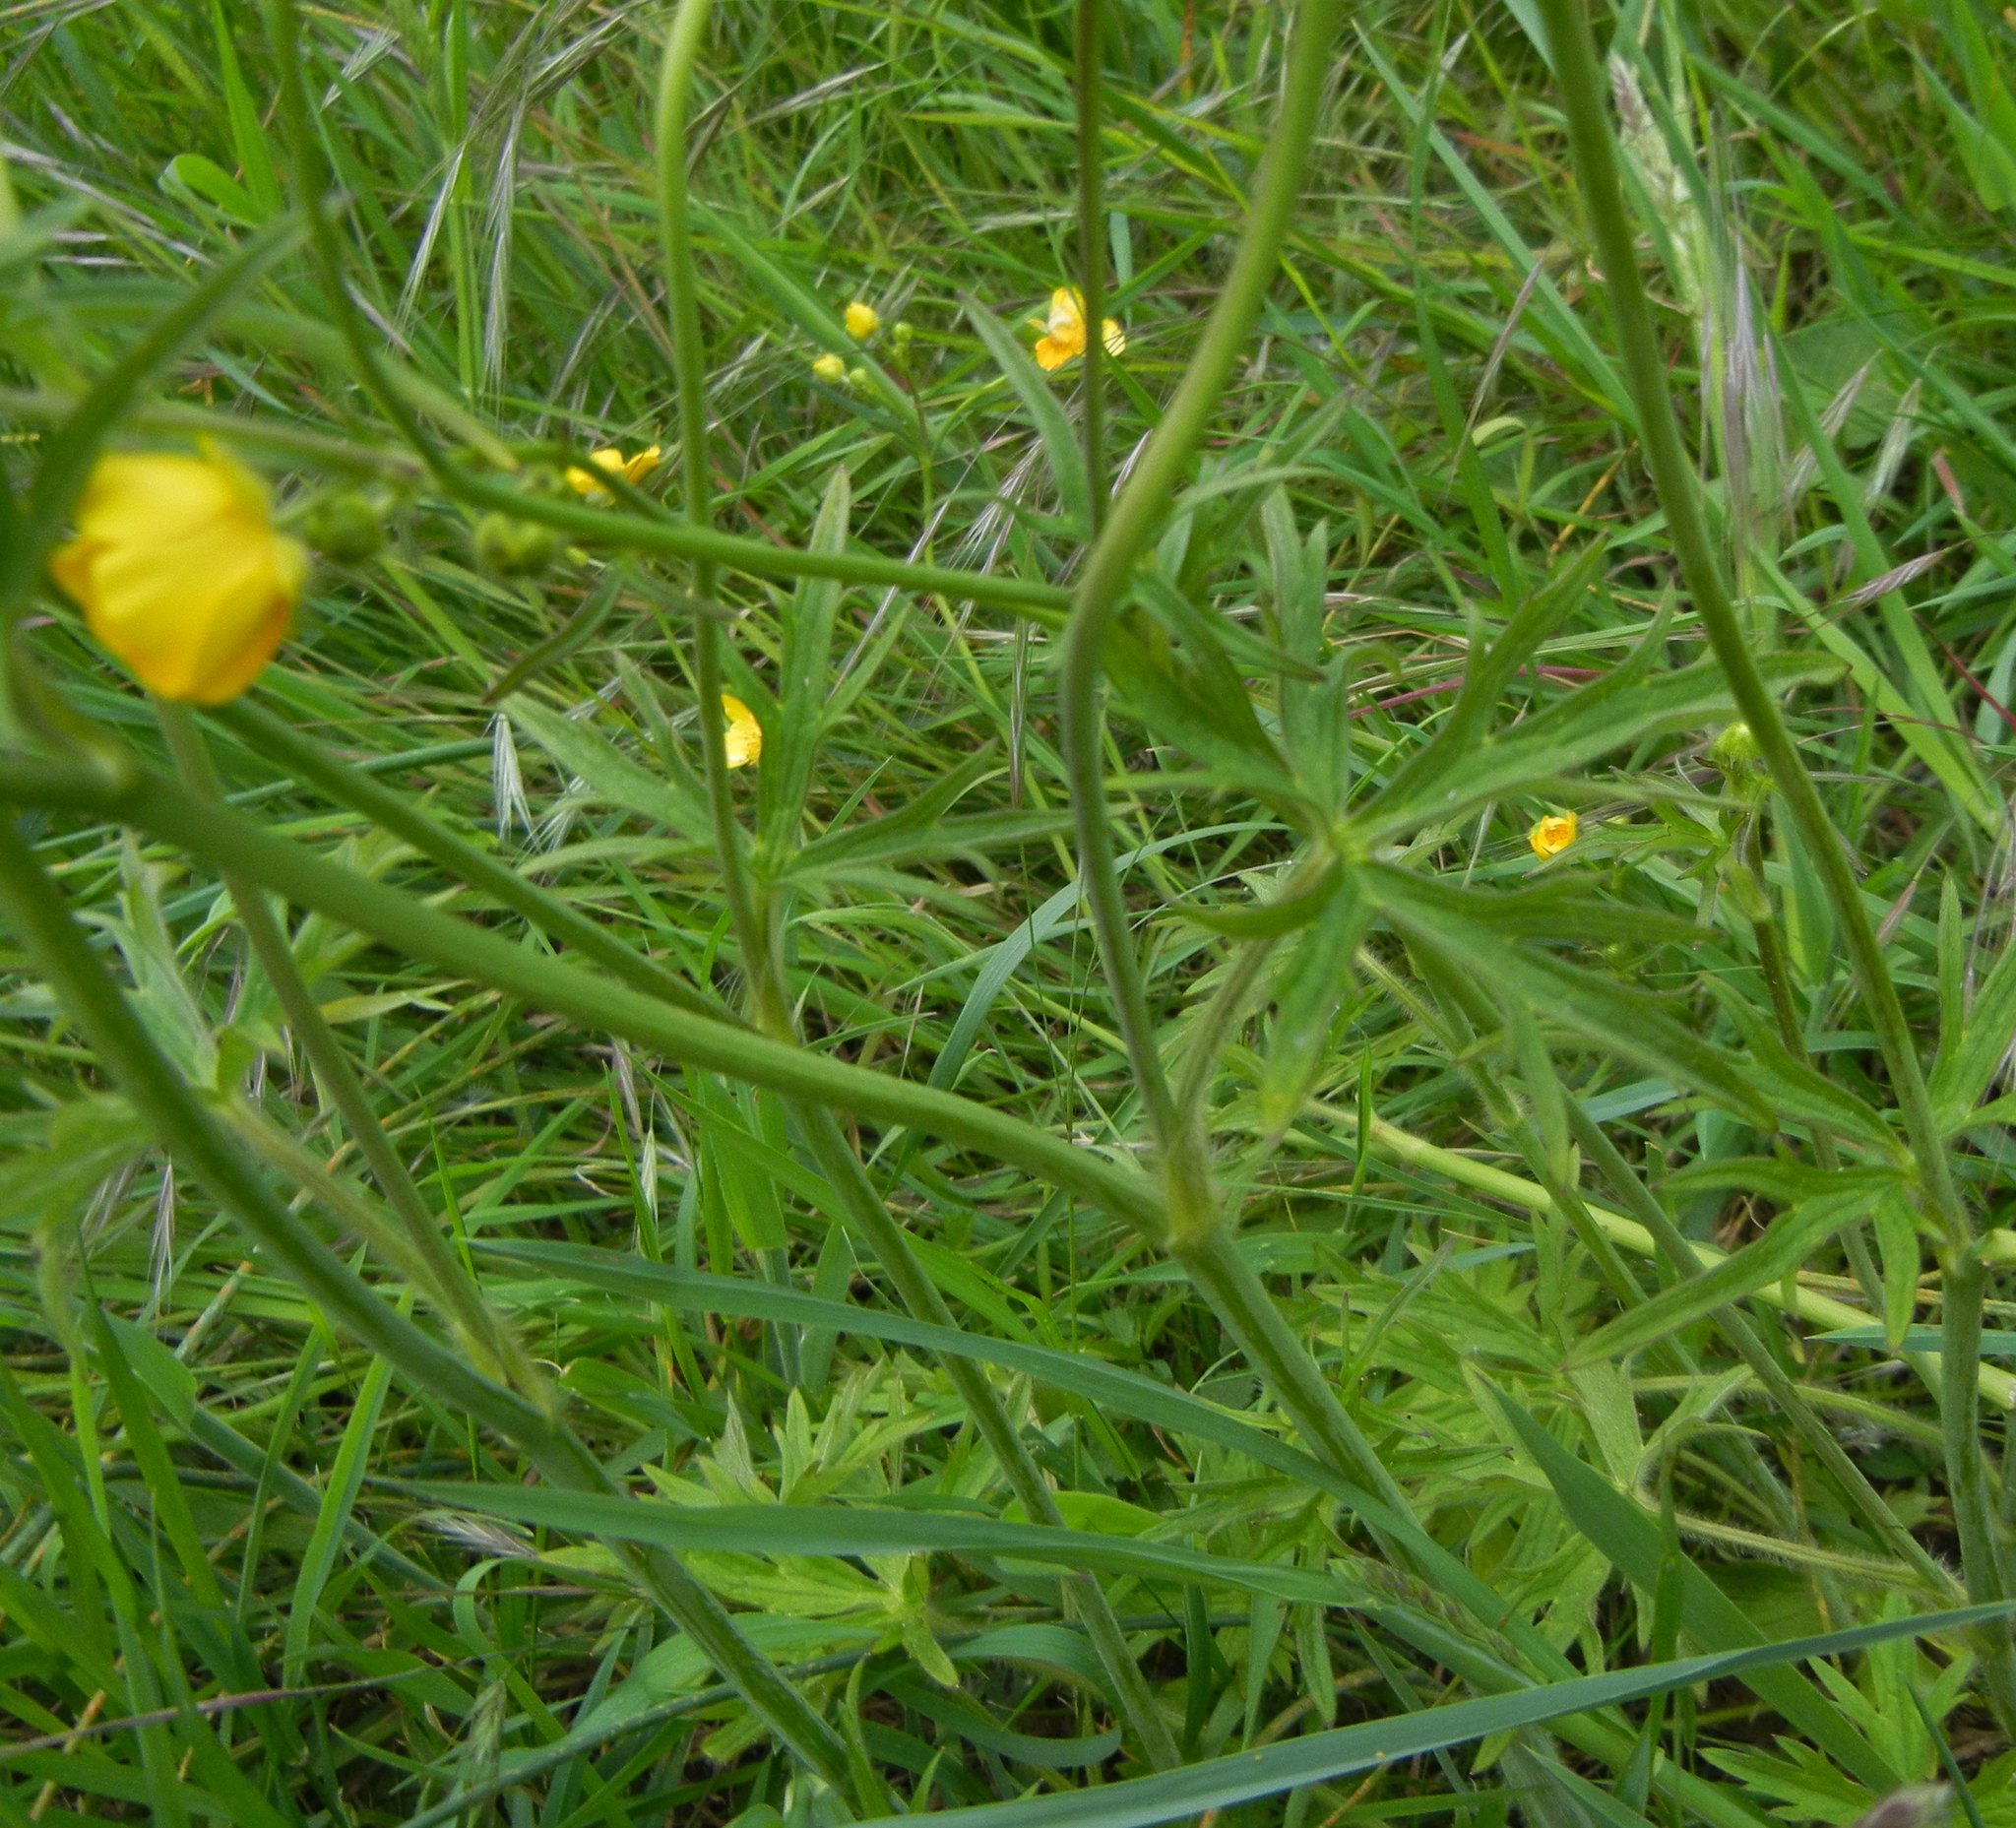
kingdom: Plantae
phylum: Tracheophyta
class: Magnoliopsida
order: Ranunculales
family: Ranunculaceae
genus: Ranunculus
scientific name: Ranunculus acris
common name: Meadow buttercup
